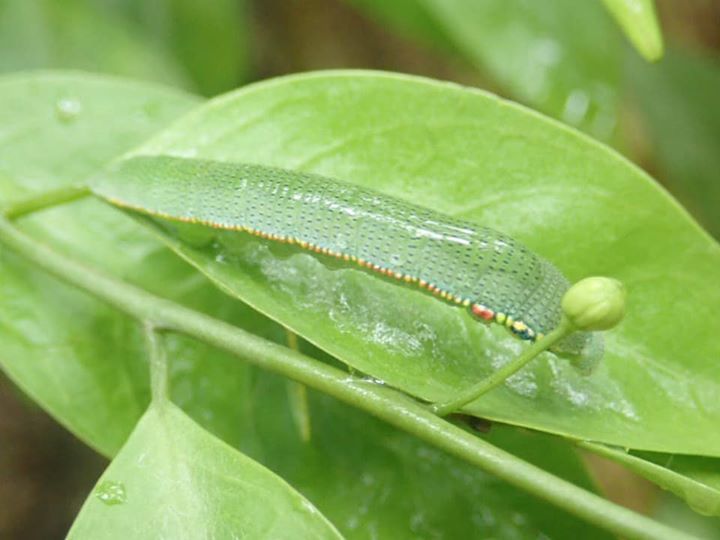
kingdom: Animalia
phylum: Arthropoda
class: Insecta
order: Lepidoptera
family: Pieridae
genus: Hebomoia
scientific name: Hebomoia glaucippe
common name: Great orange tip
